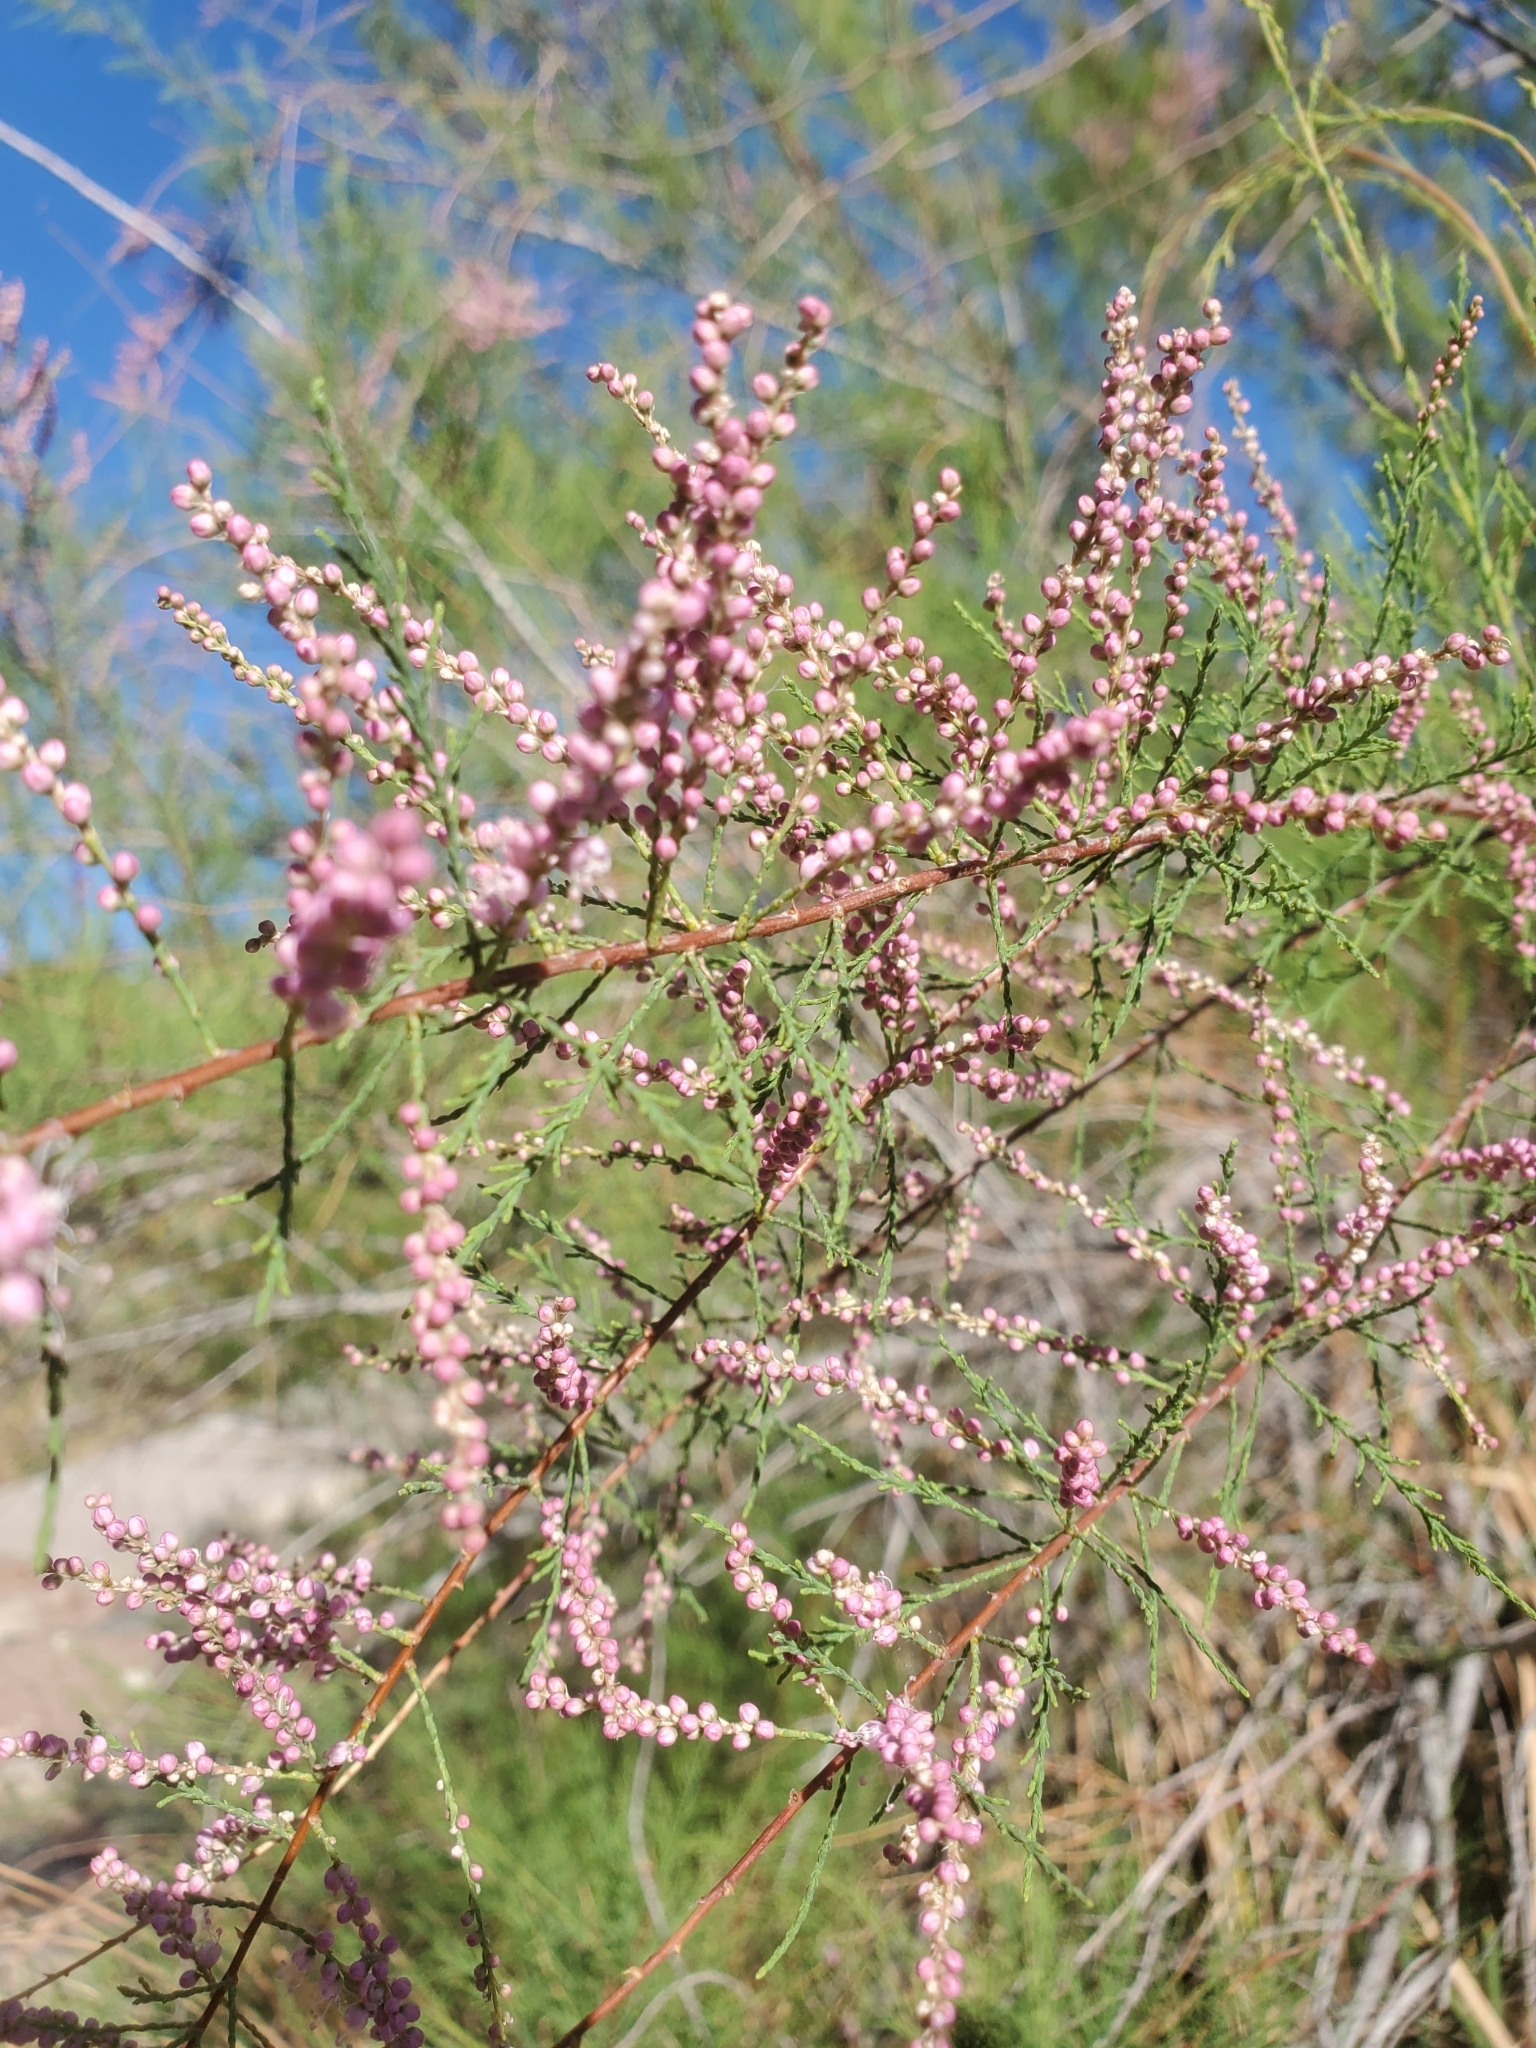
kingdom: Plantae
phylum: Tracheophyta
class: Magnoliopsida
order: Caryophyllales
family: Tamaricaceae
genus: Tamarix
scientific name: Tamarix ramosissima
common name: Pink tamarisk
